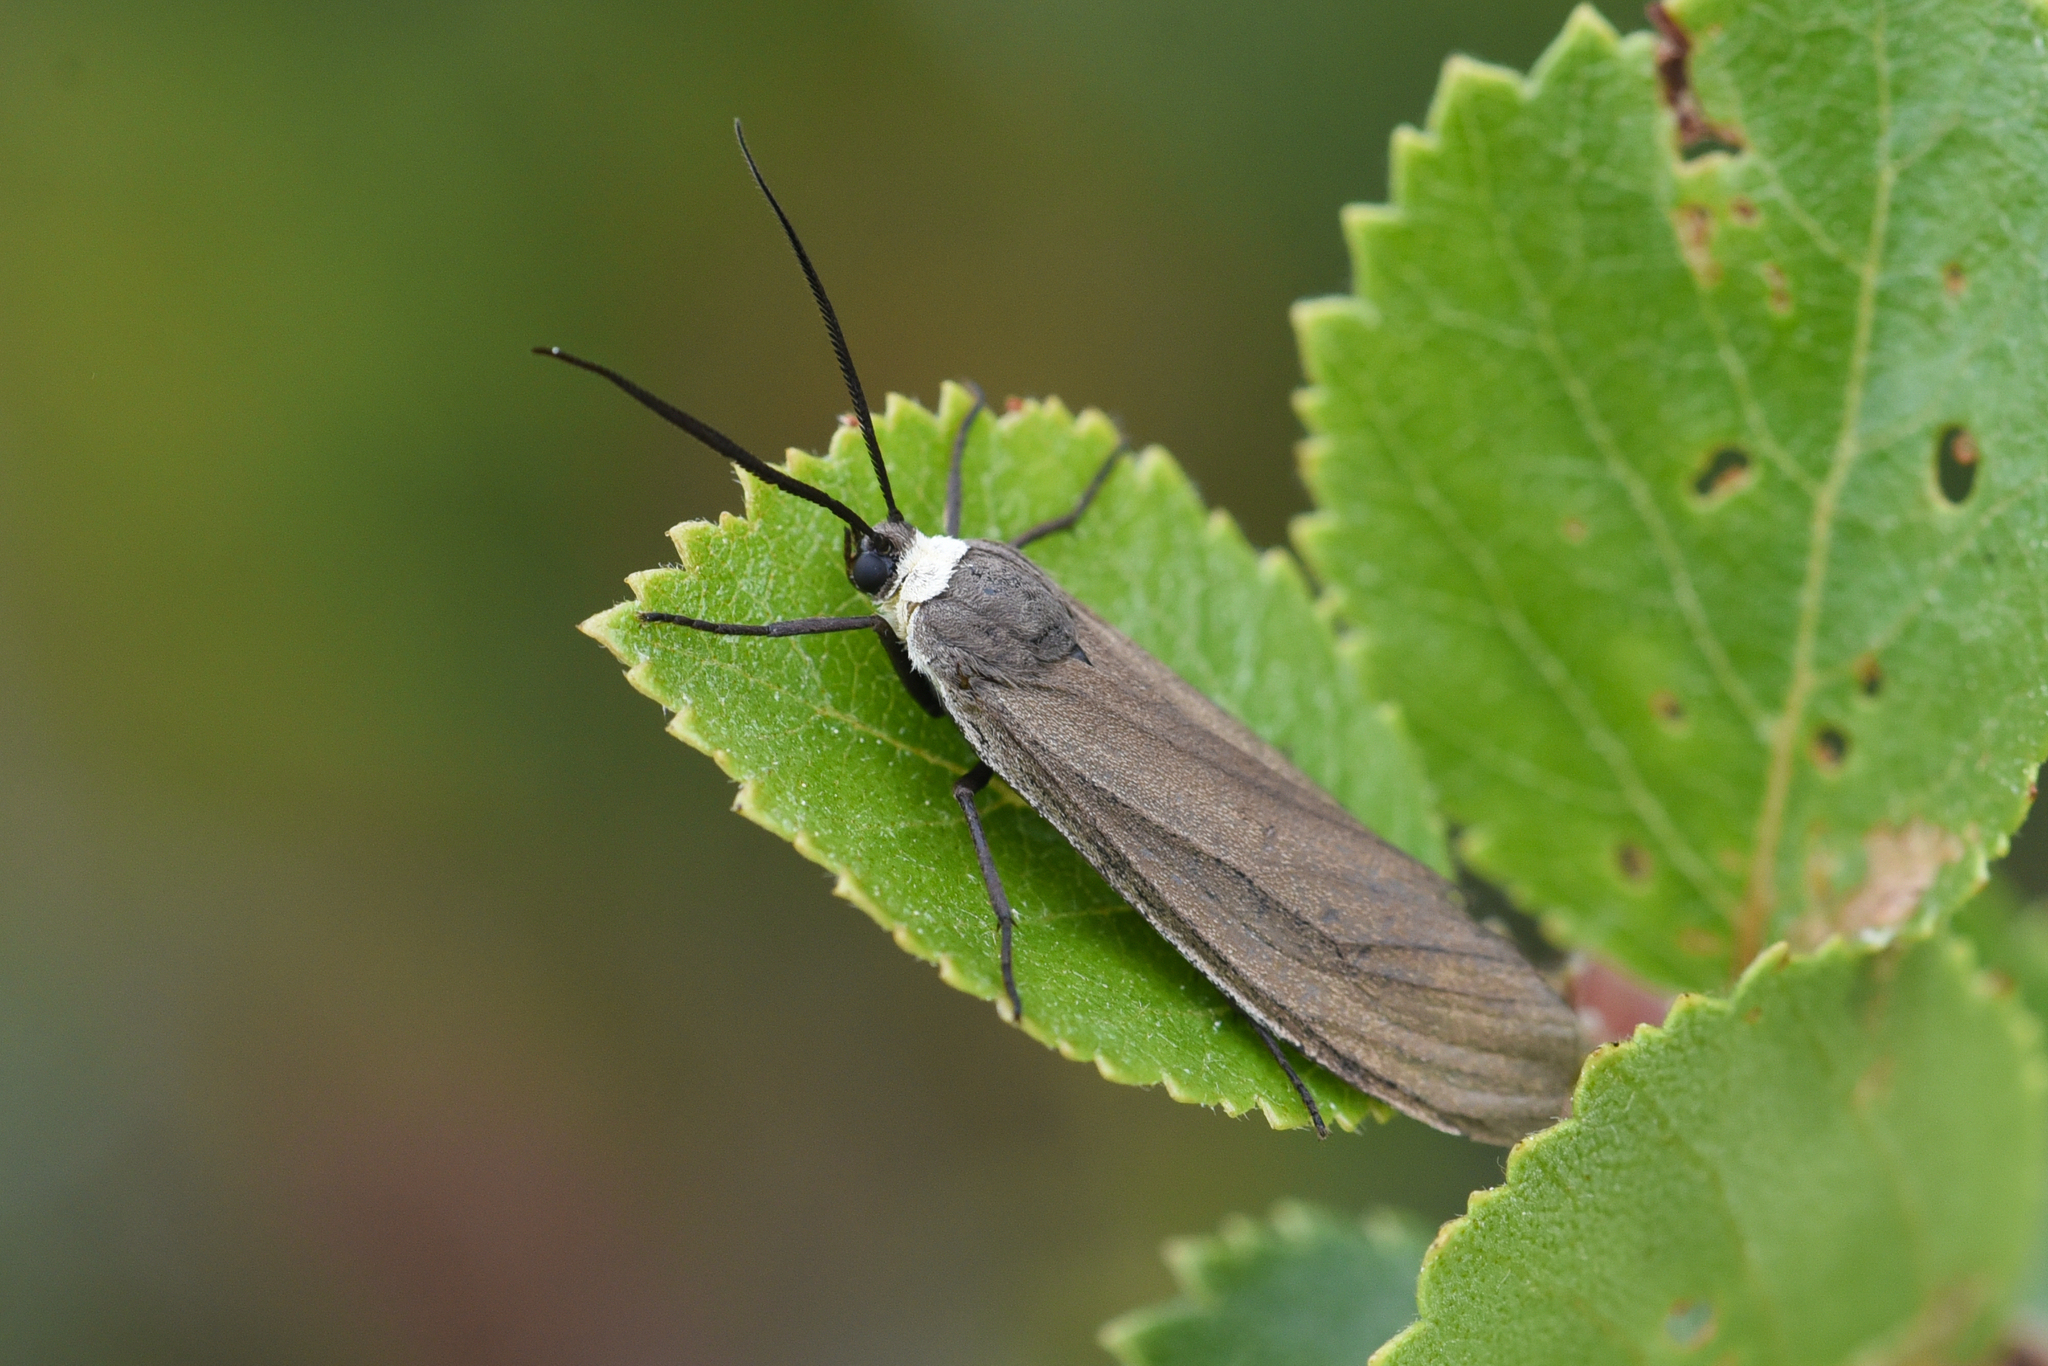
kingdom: Animalia
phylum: Arthropoda
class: Insecta
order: Lepidoptera
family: Erebidae
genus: Cisseps
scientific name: Cisseps fulvicollis
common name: Yellow-collared scape moth
